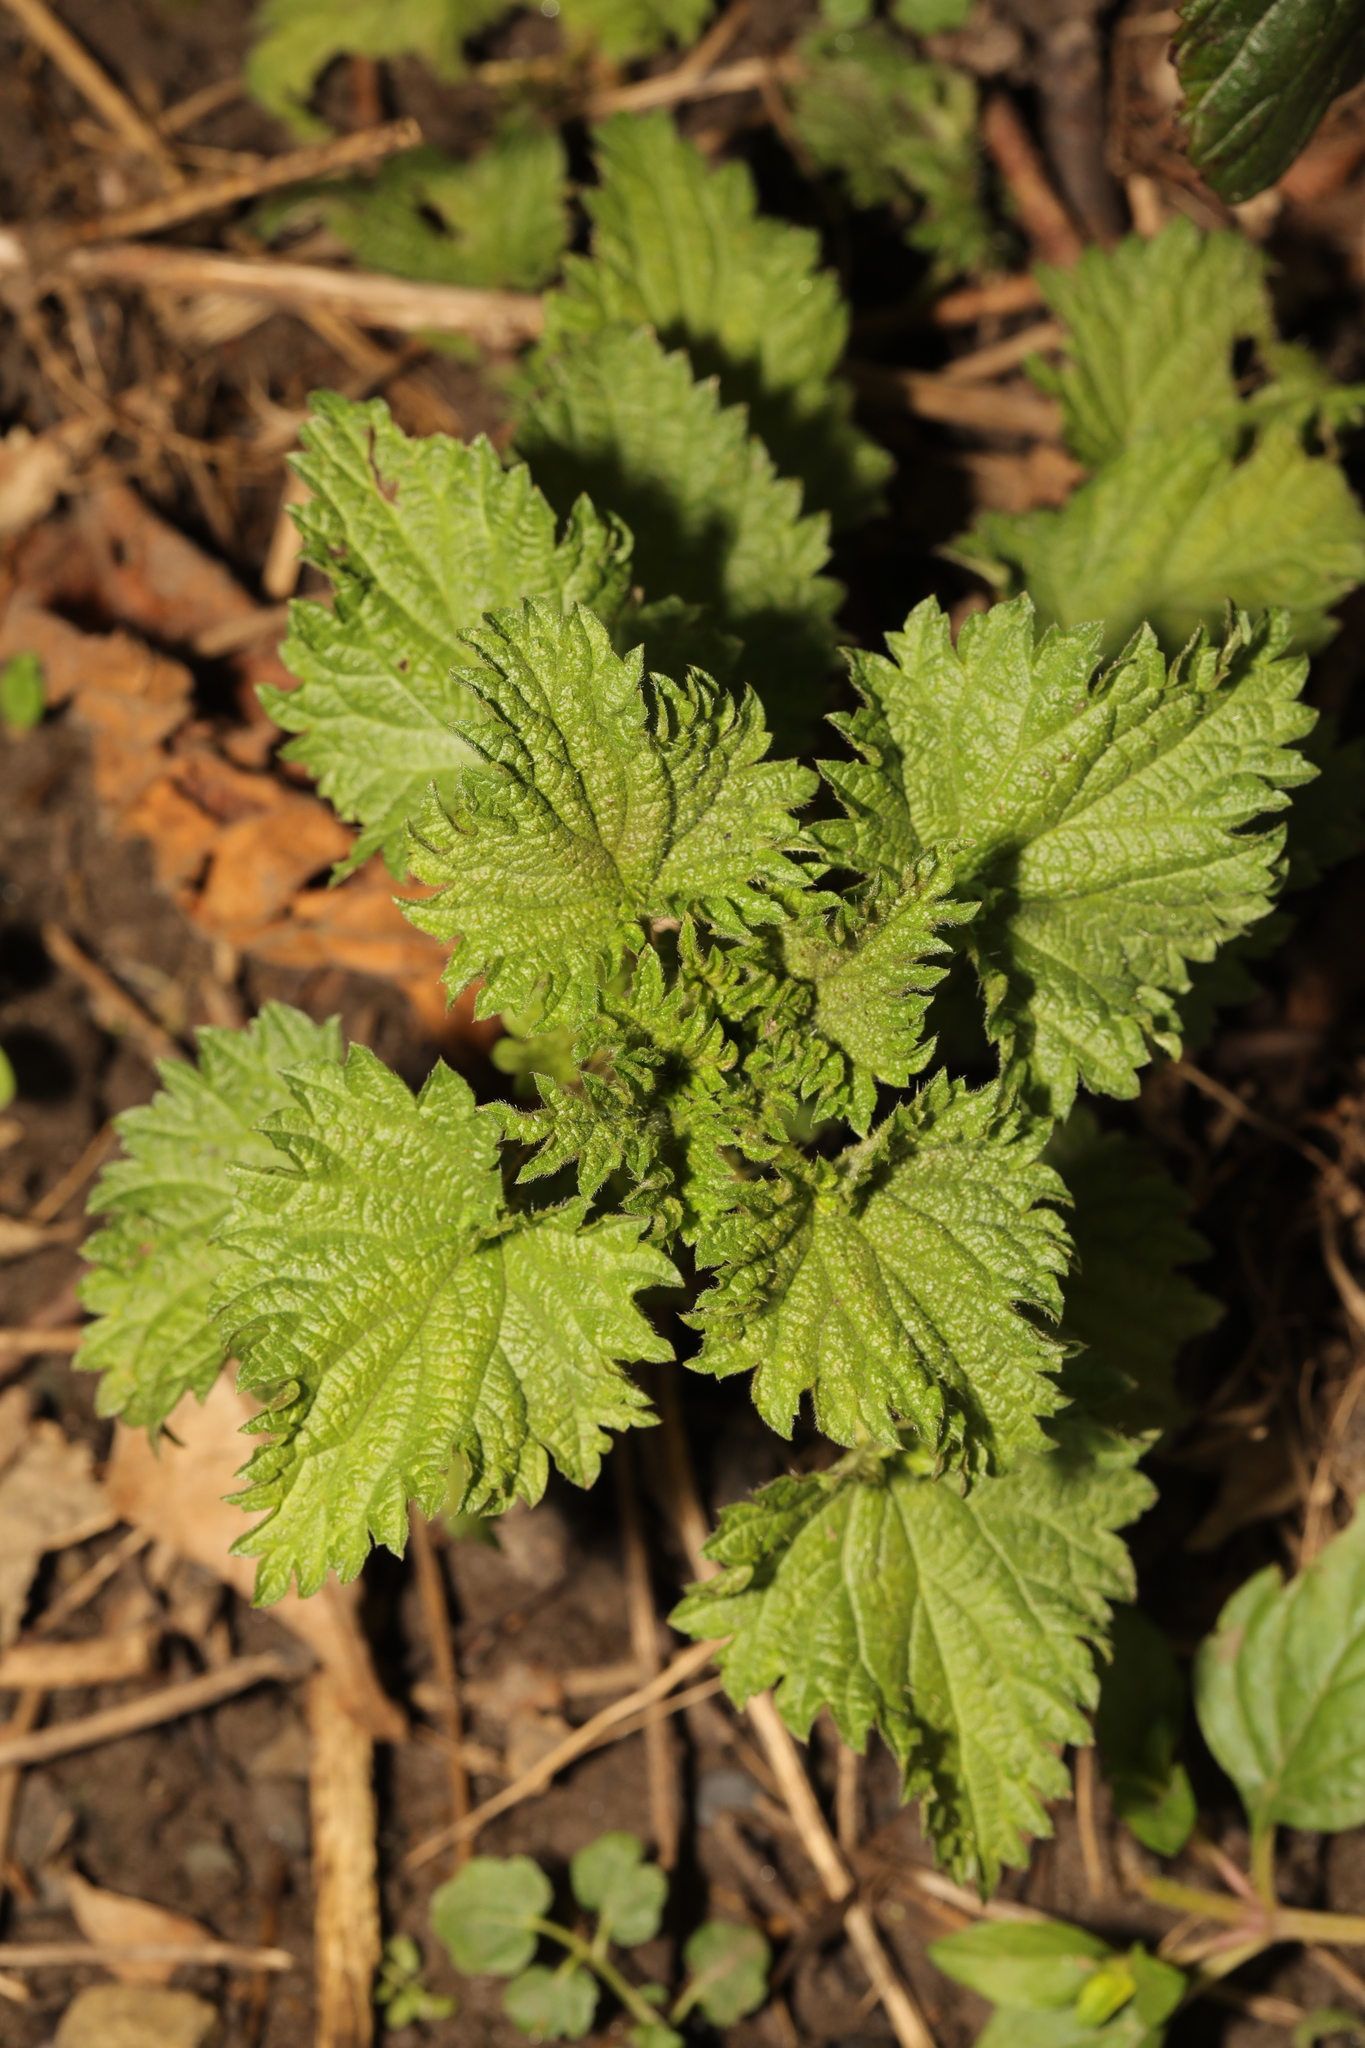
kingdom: Plantae
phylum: Tracheophyta
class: Magnoliopsida
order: Rosales
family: Urticaceae
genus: Urtica
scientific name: Urtica dioica
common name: Common nettle
